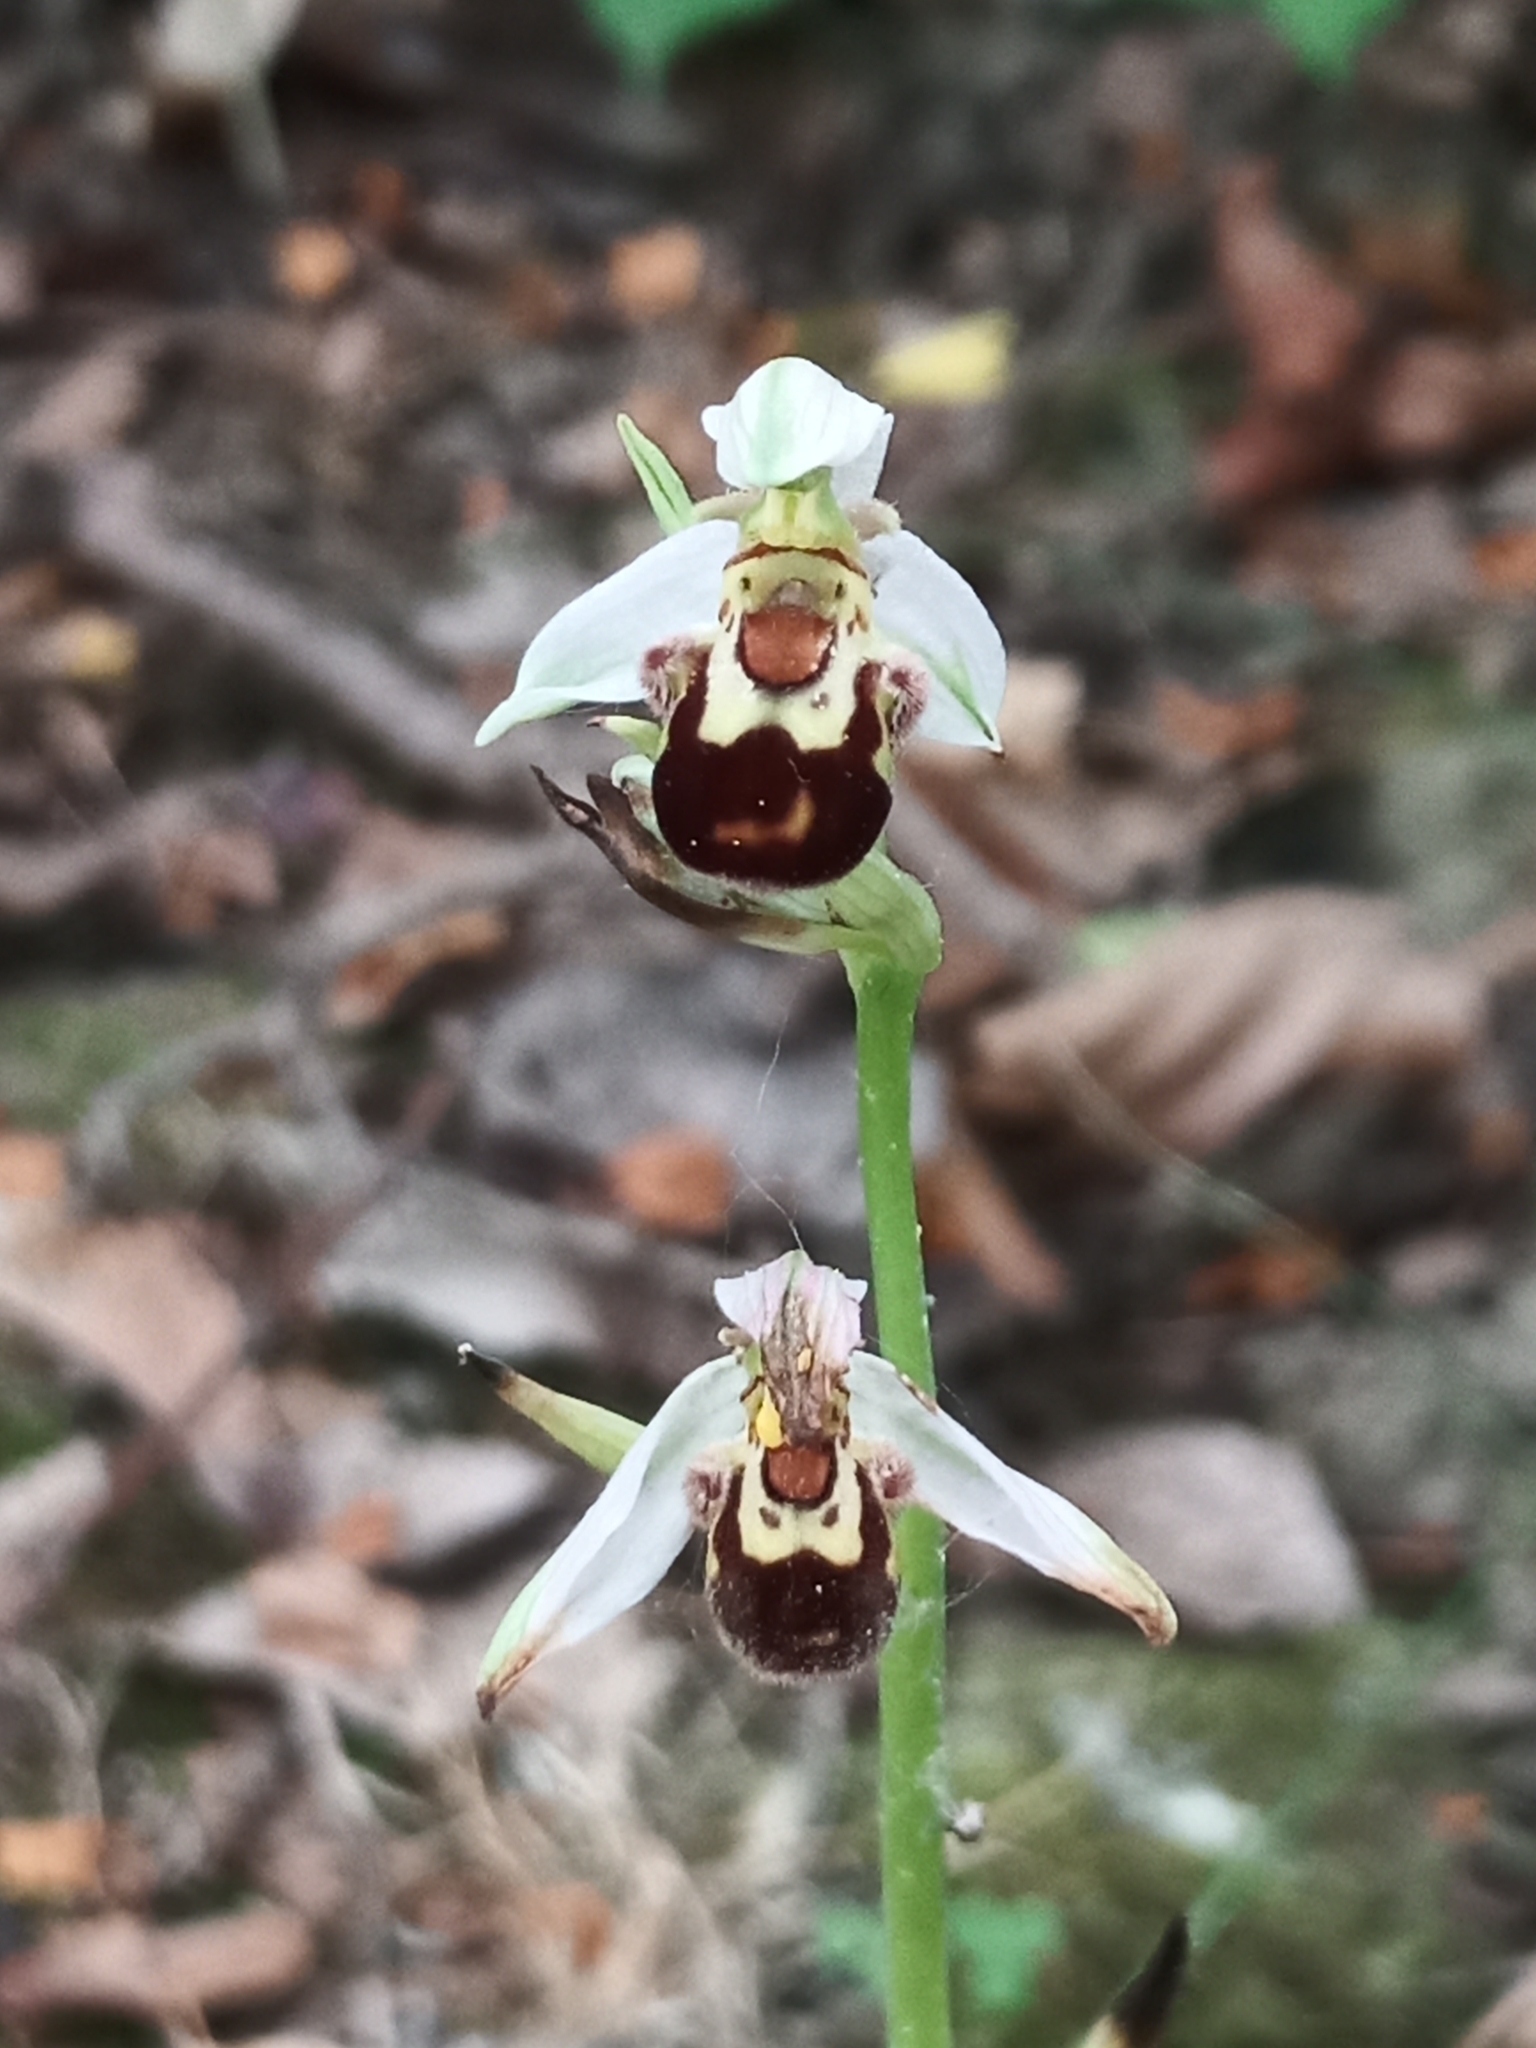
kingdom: Plantae
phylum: Tracheophyta
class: Liliopsida
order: Asparagales
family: Orchidaceae
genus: Ophrys
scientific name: Ophrys apifera
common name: Bee orchid
